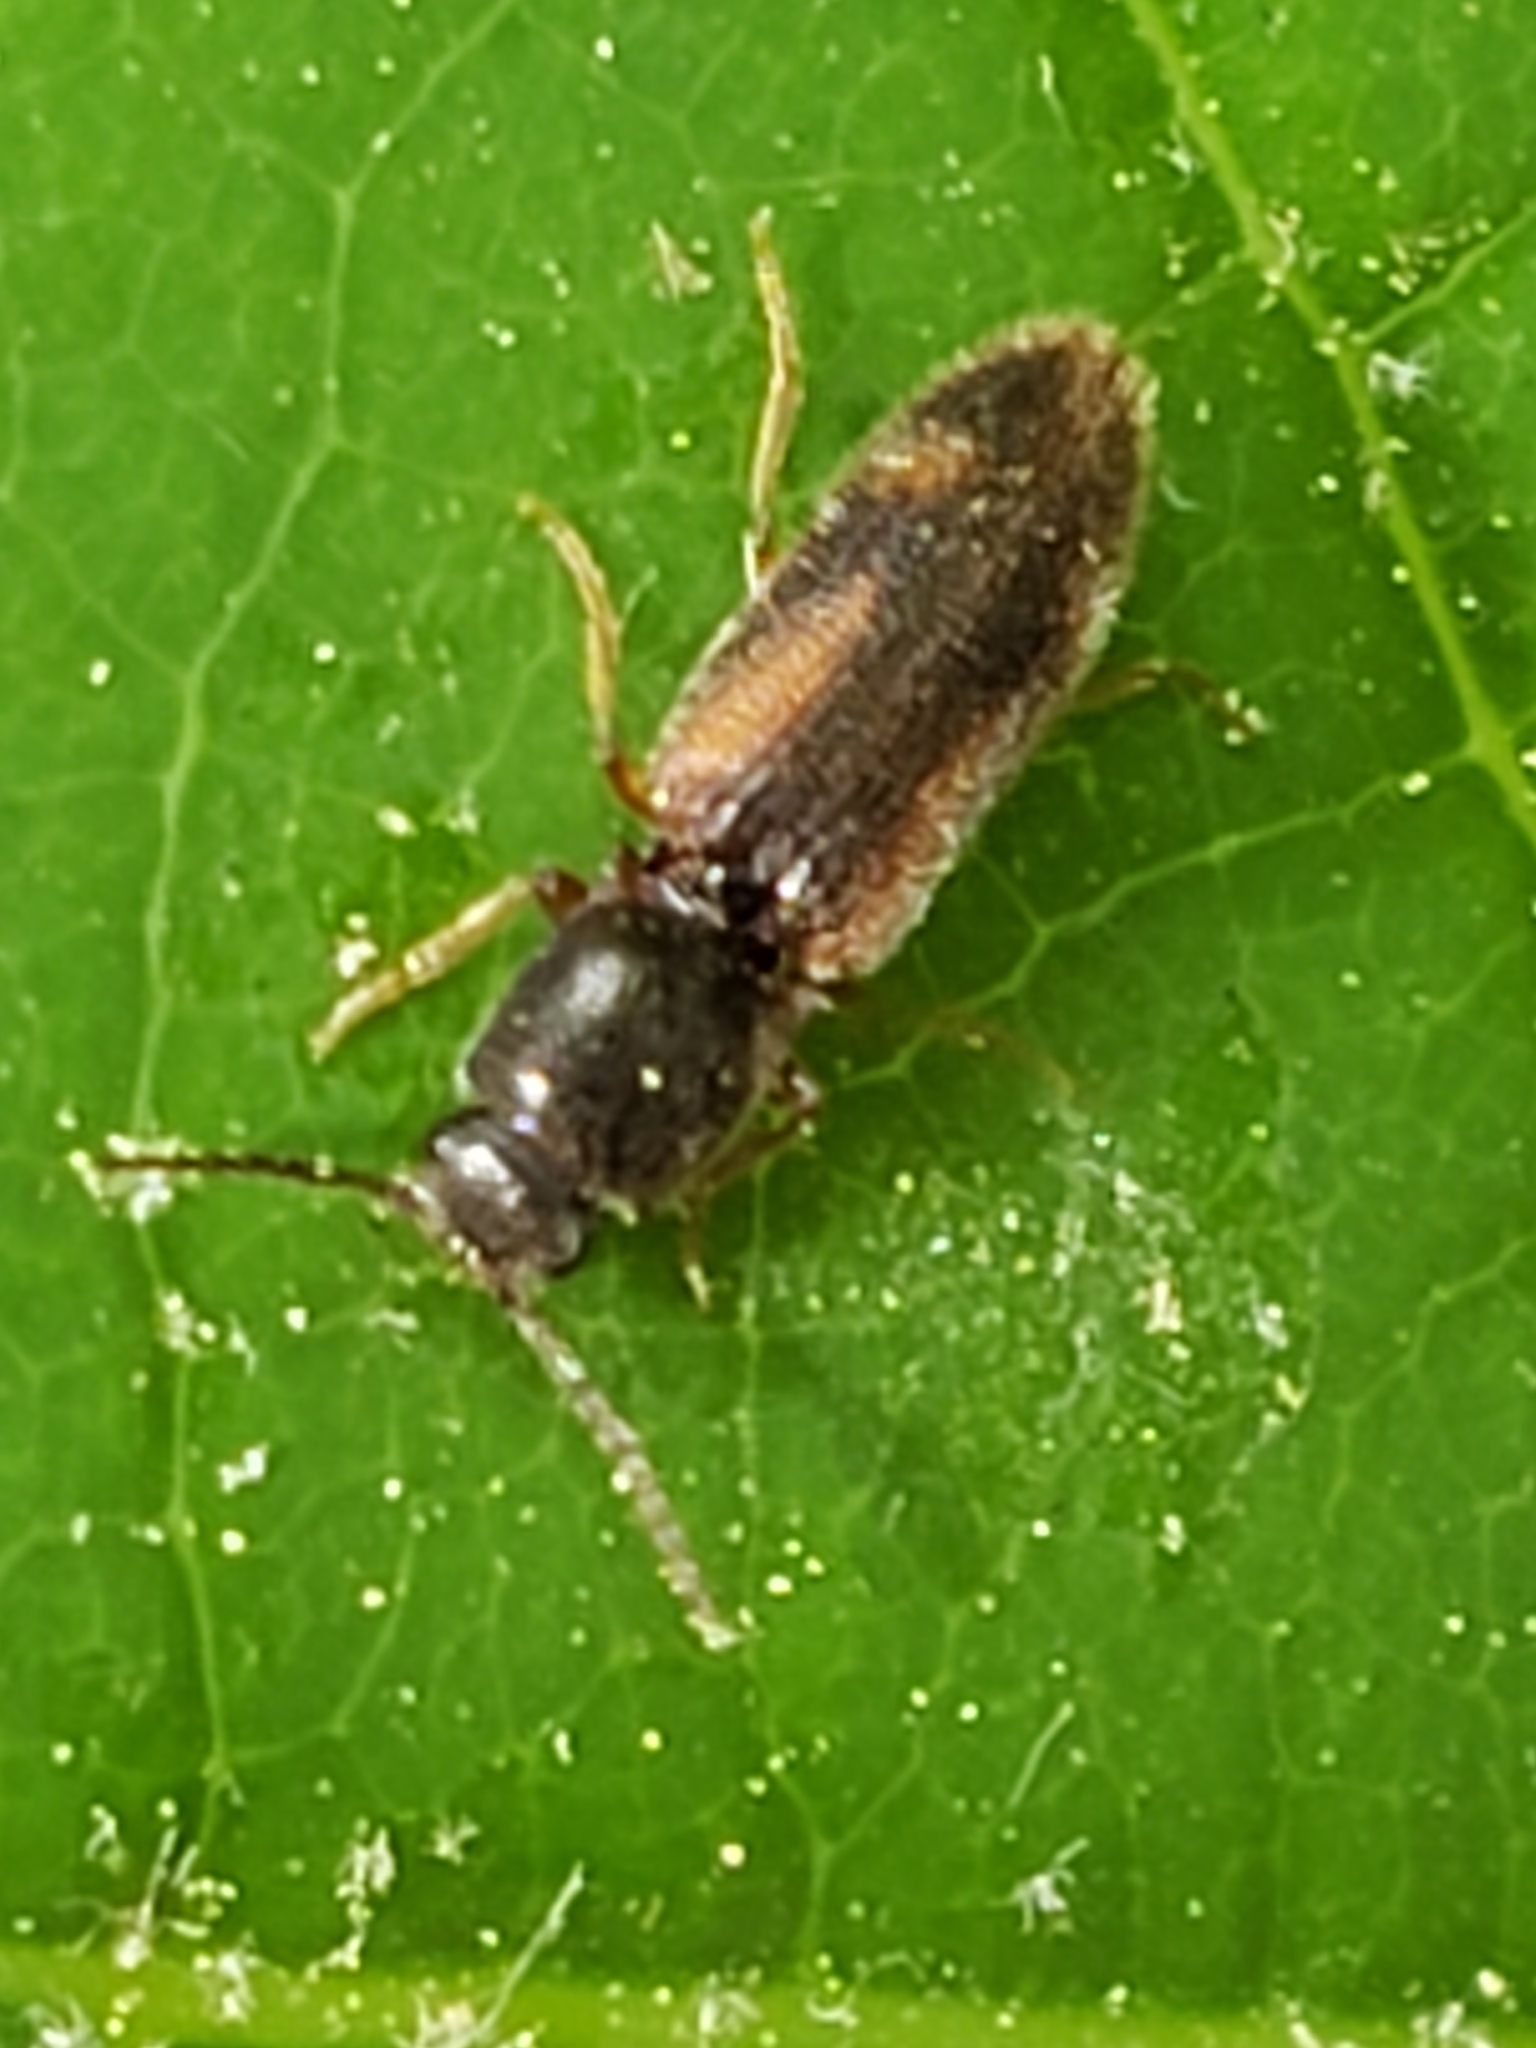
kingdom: Animalia
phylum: Arthropoda
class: Insecta
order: Coleoptera
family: Elateridae
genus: Athous
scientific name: Athous
